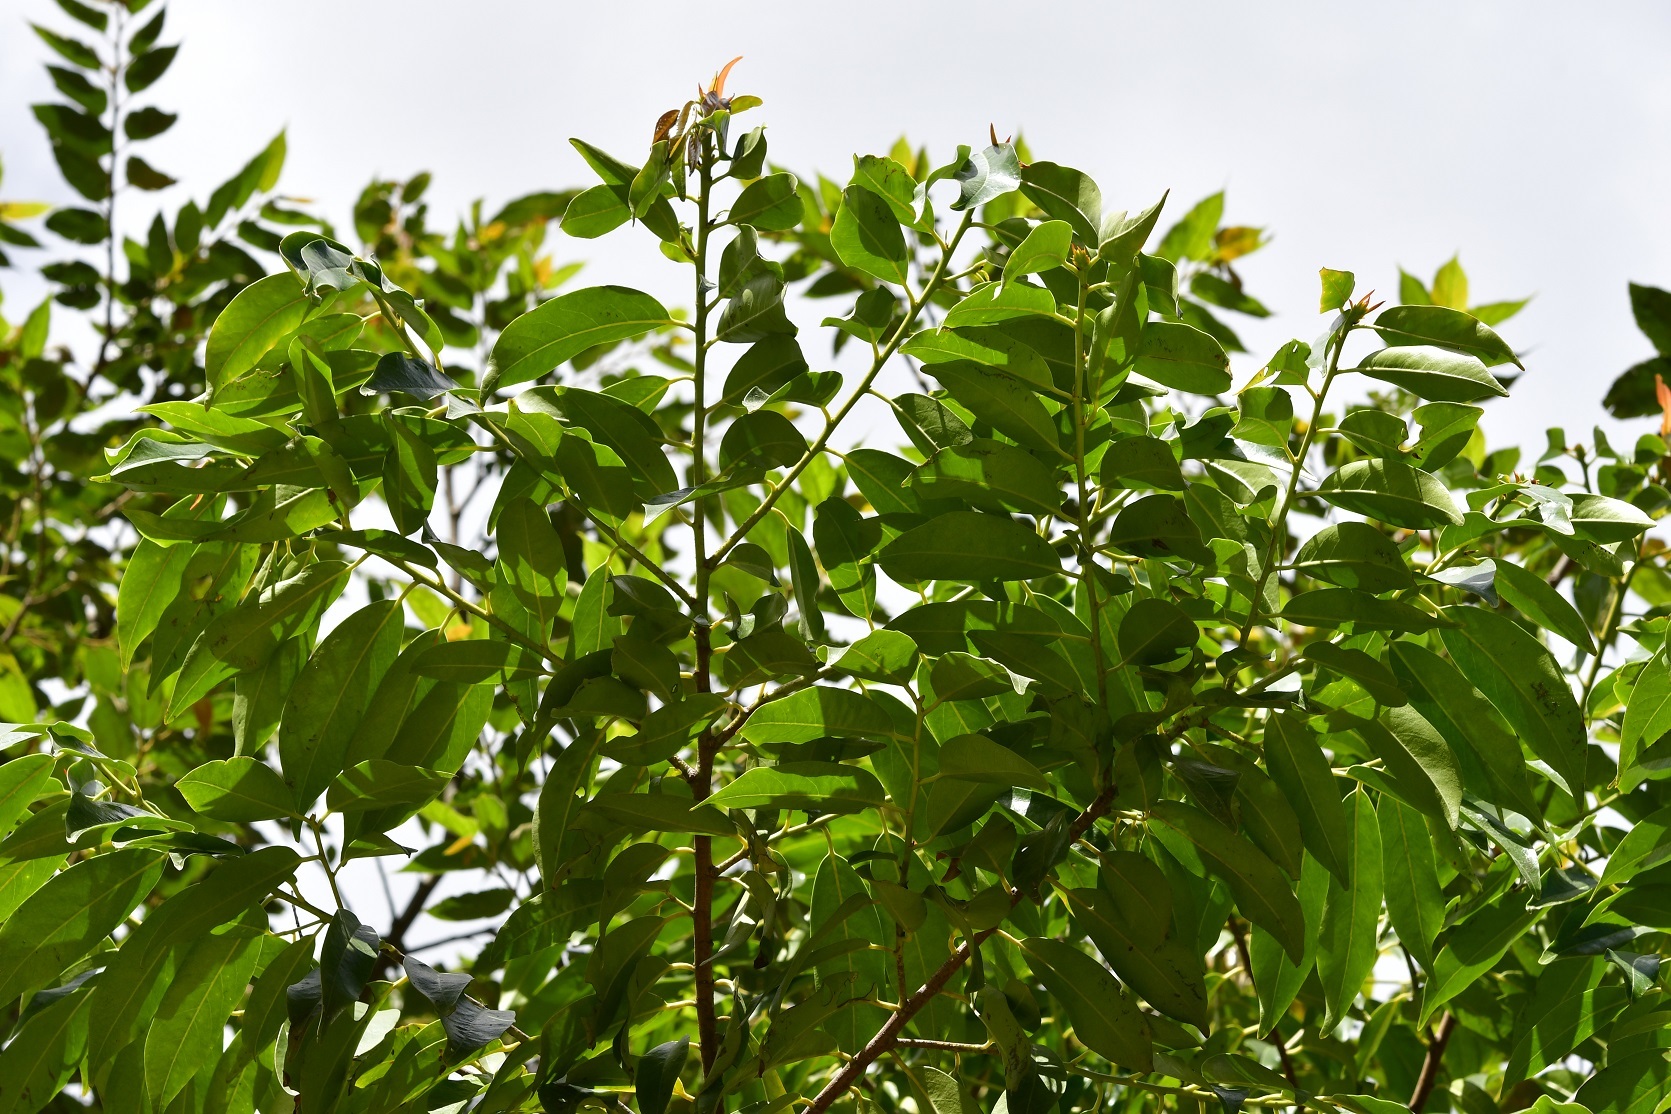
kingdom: Plantae
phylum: Tracheophyta
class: Magnoliopsida
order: Rosales
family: Rosaceae
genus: Prunus
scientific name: Prunus tuberculata
